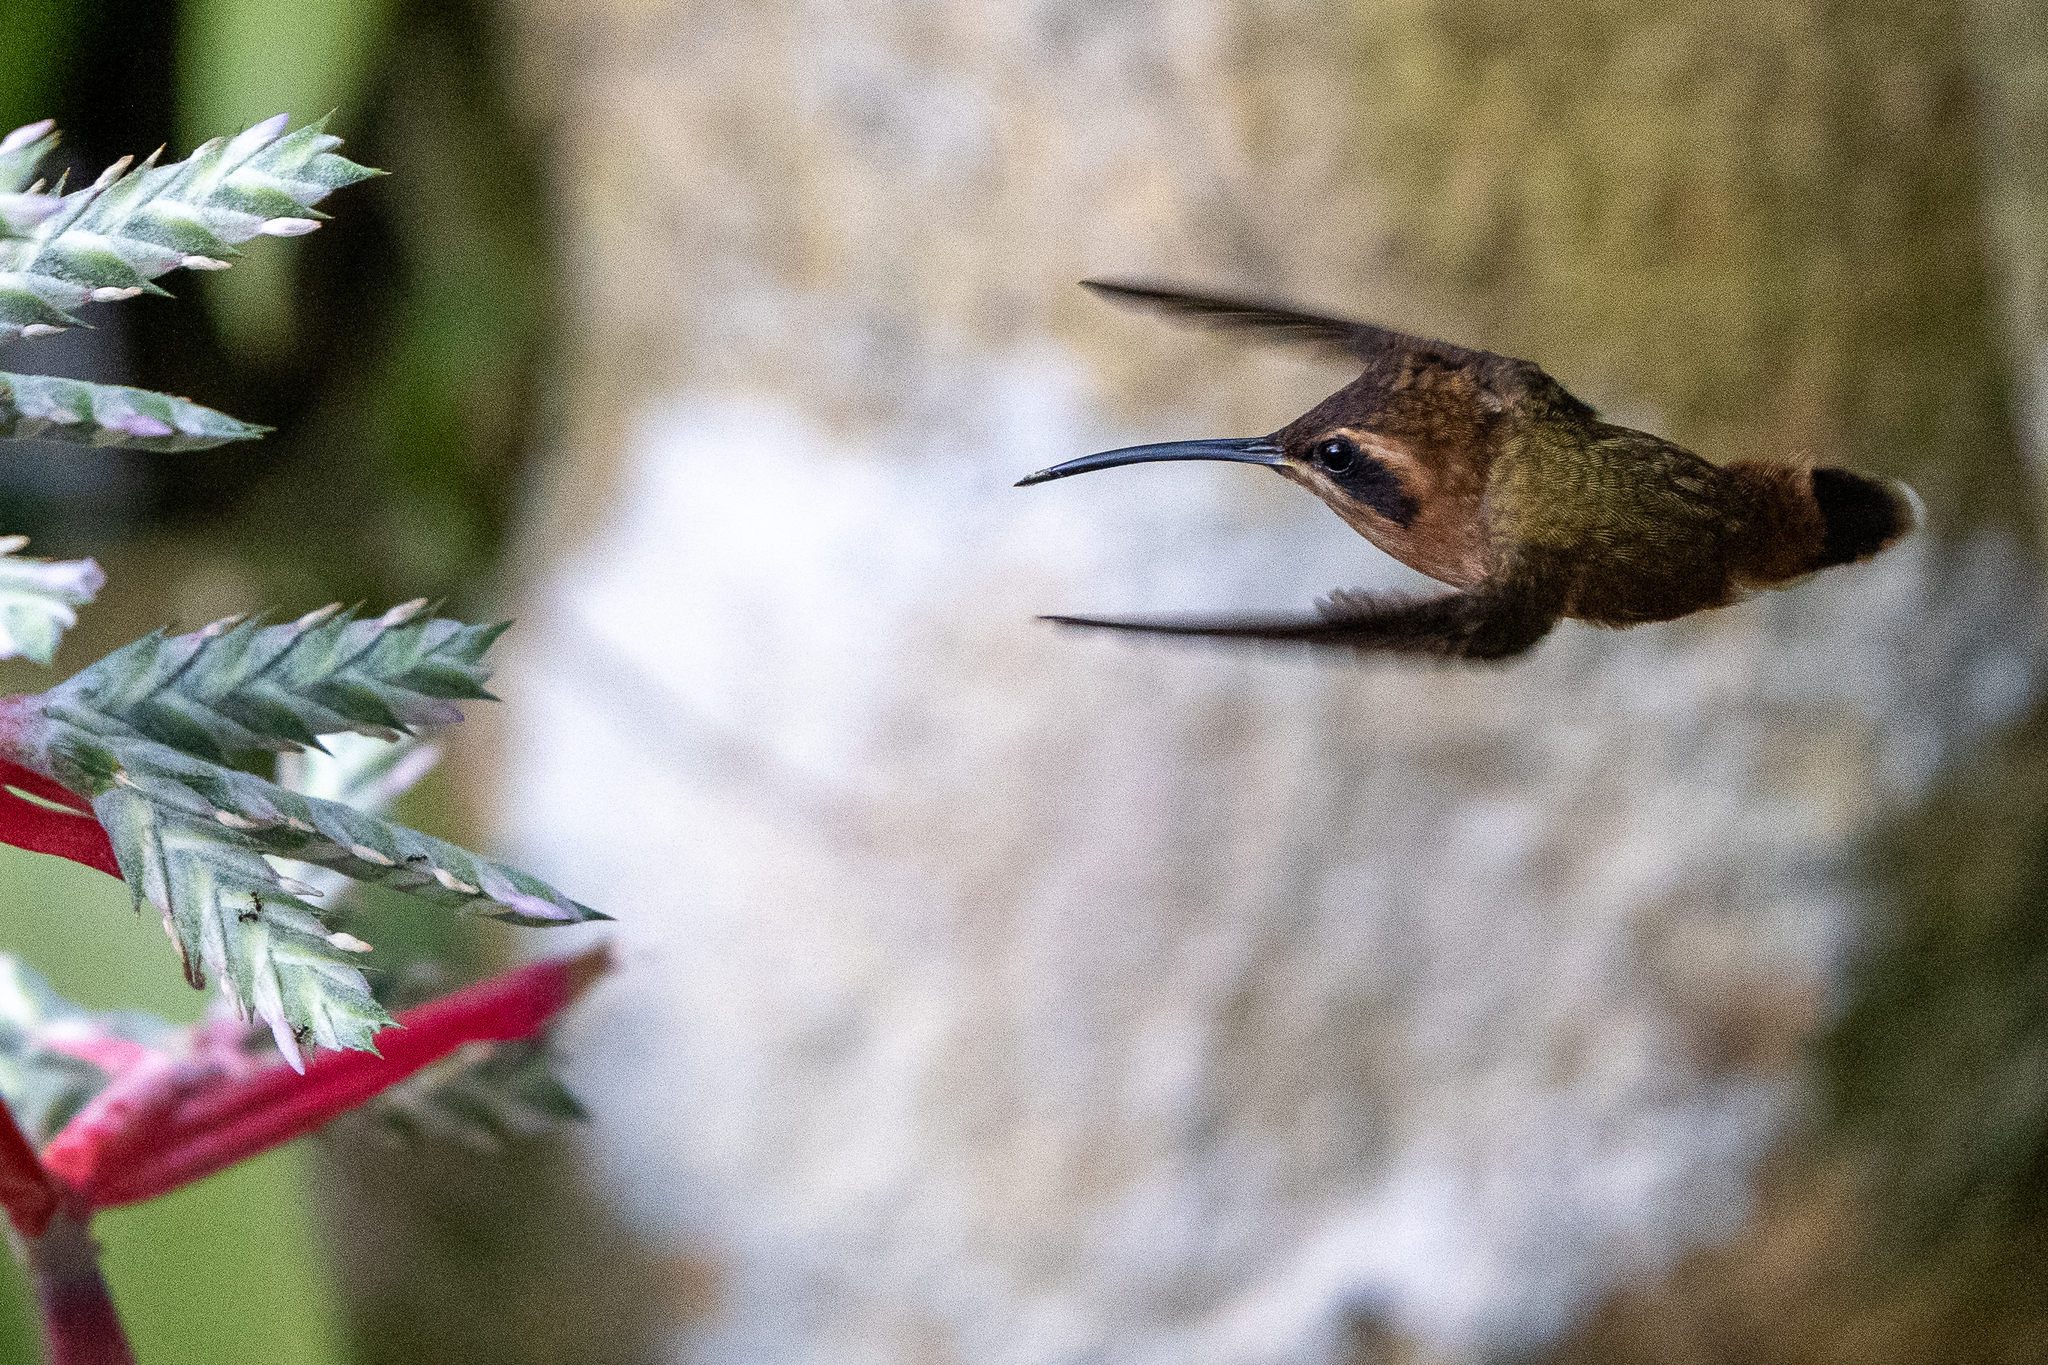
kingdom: Animalia
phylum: Chordata
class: Aves
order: Apodiformes
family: Trochilidae
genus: Phaethornis
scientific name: Phaethornis striigularis
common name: Stripe-throated hermit
